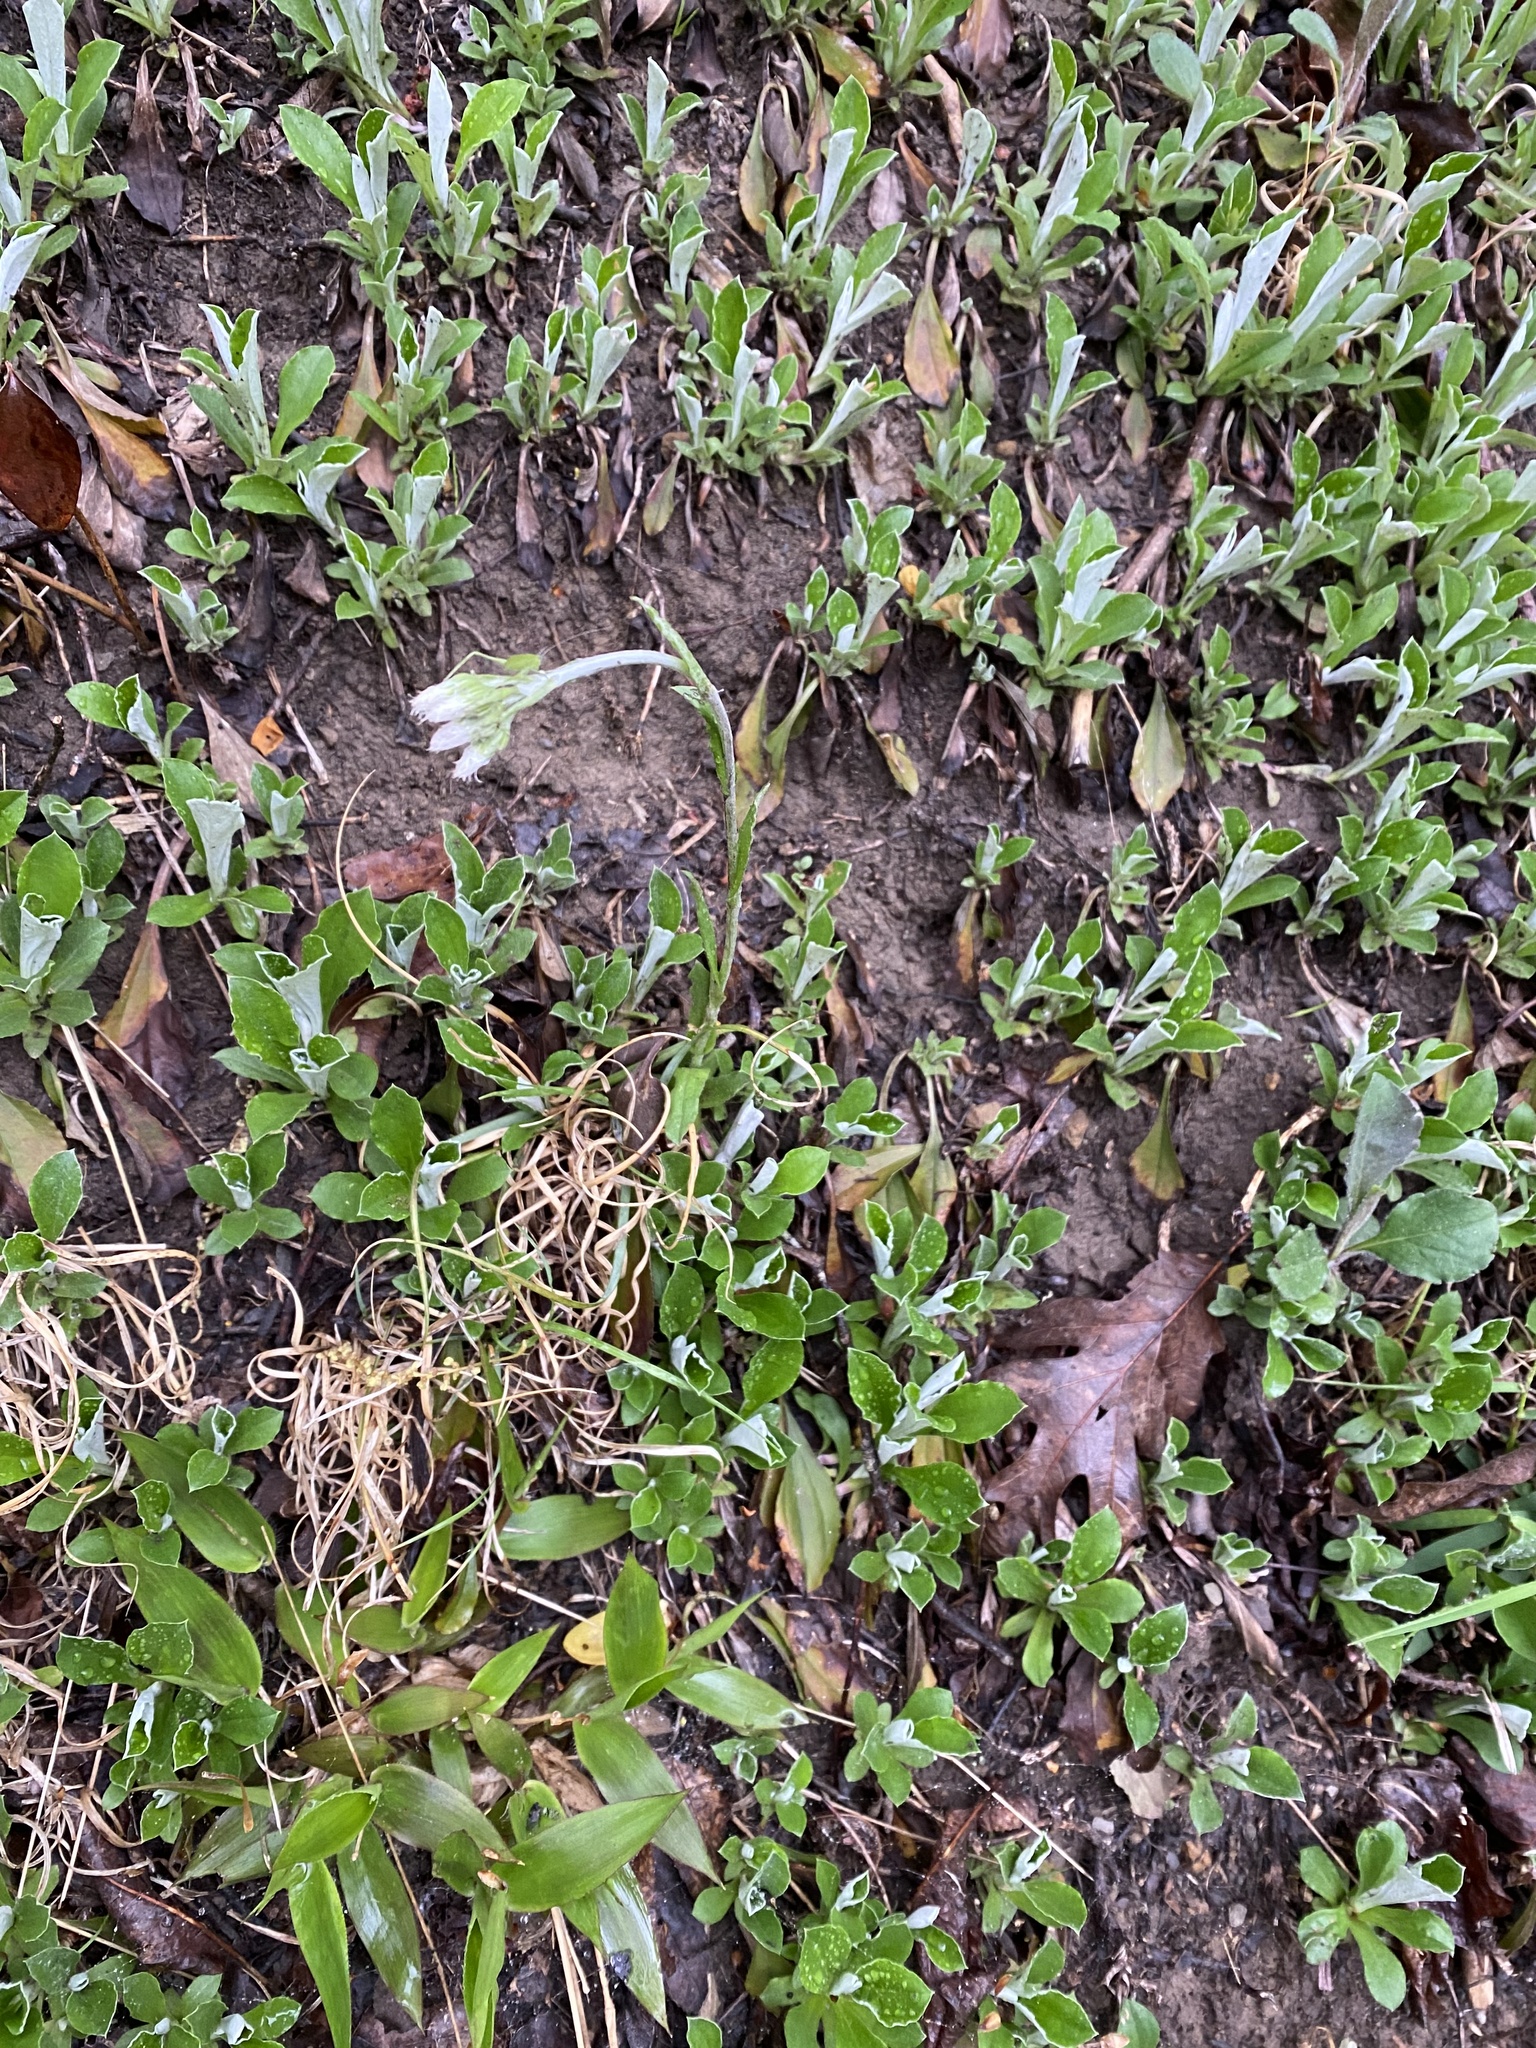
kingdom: Plantae
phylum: Tracheophyta
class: Magnoliopsida
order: Asterales
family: Asteraceae
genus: Antennaria
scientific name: Antennaria parlinii
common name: Parlin's pussytoes
